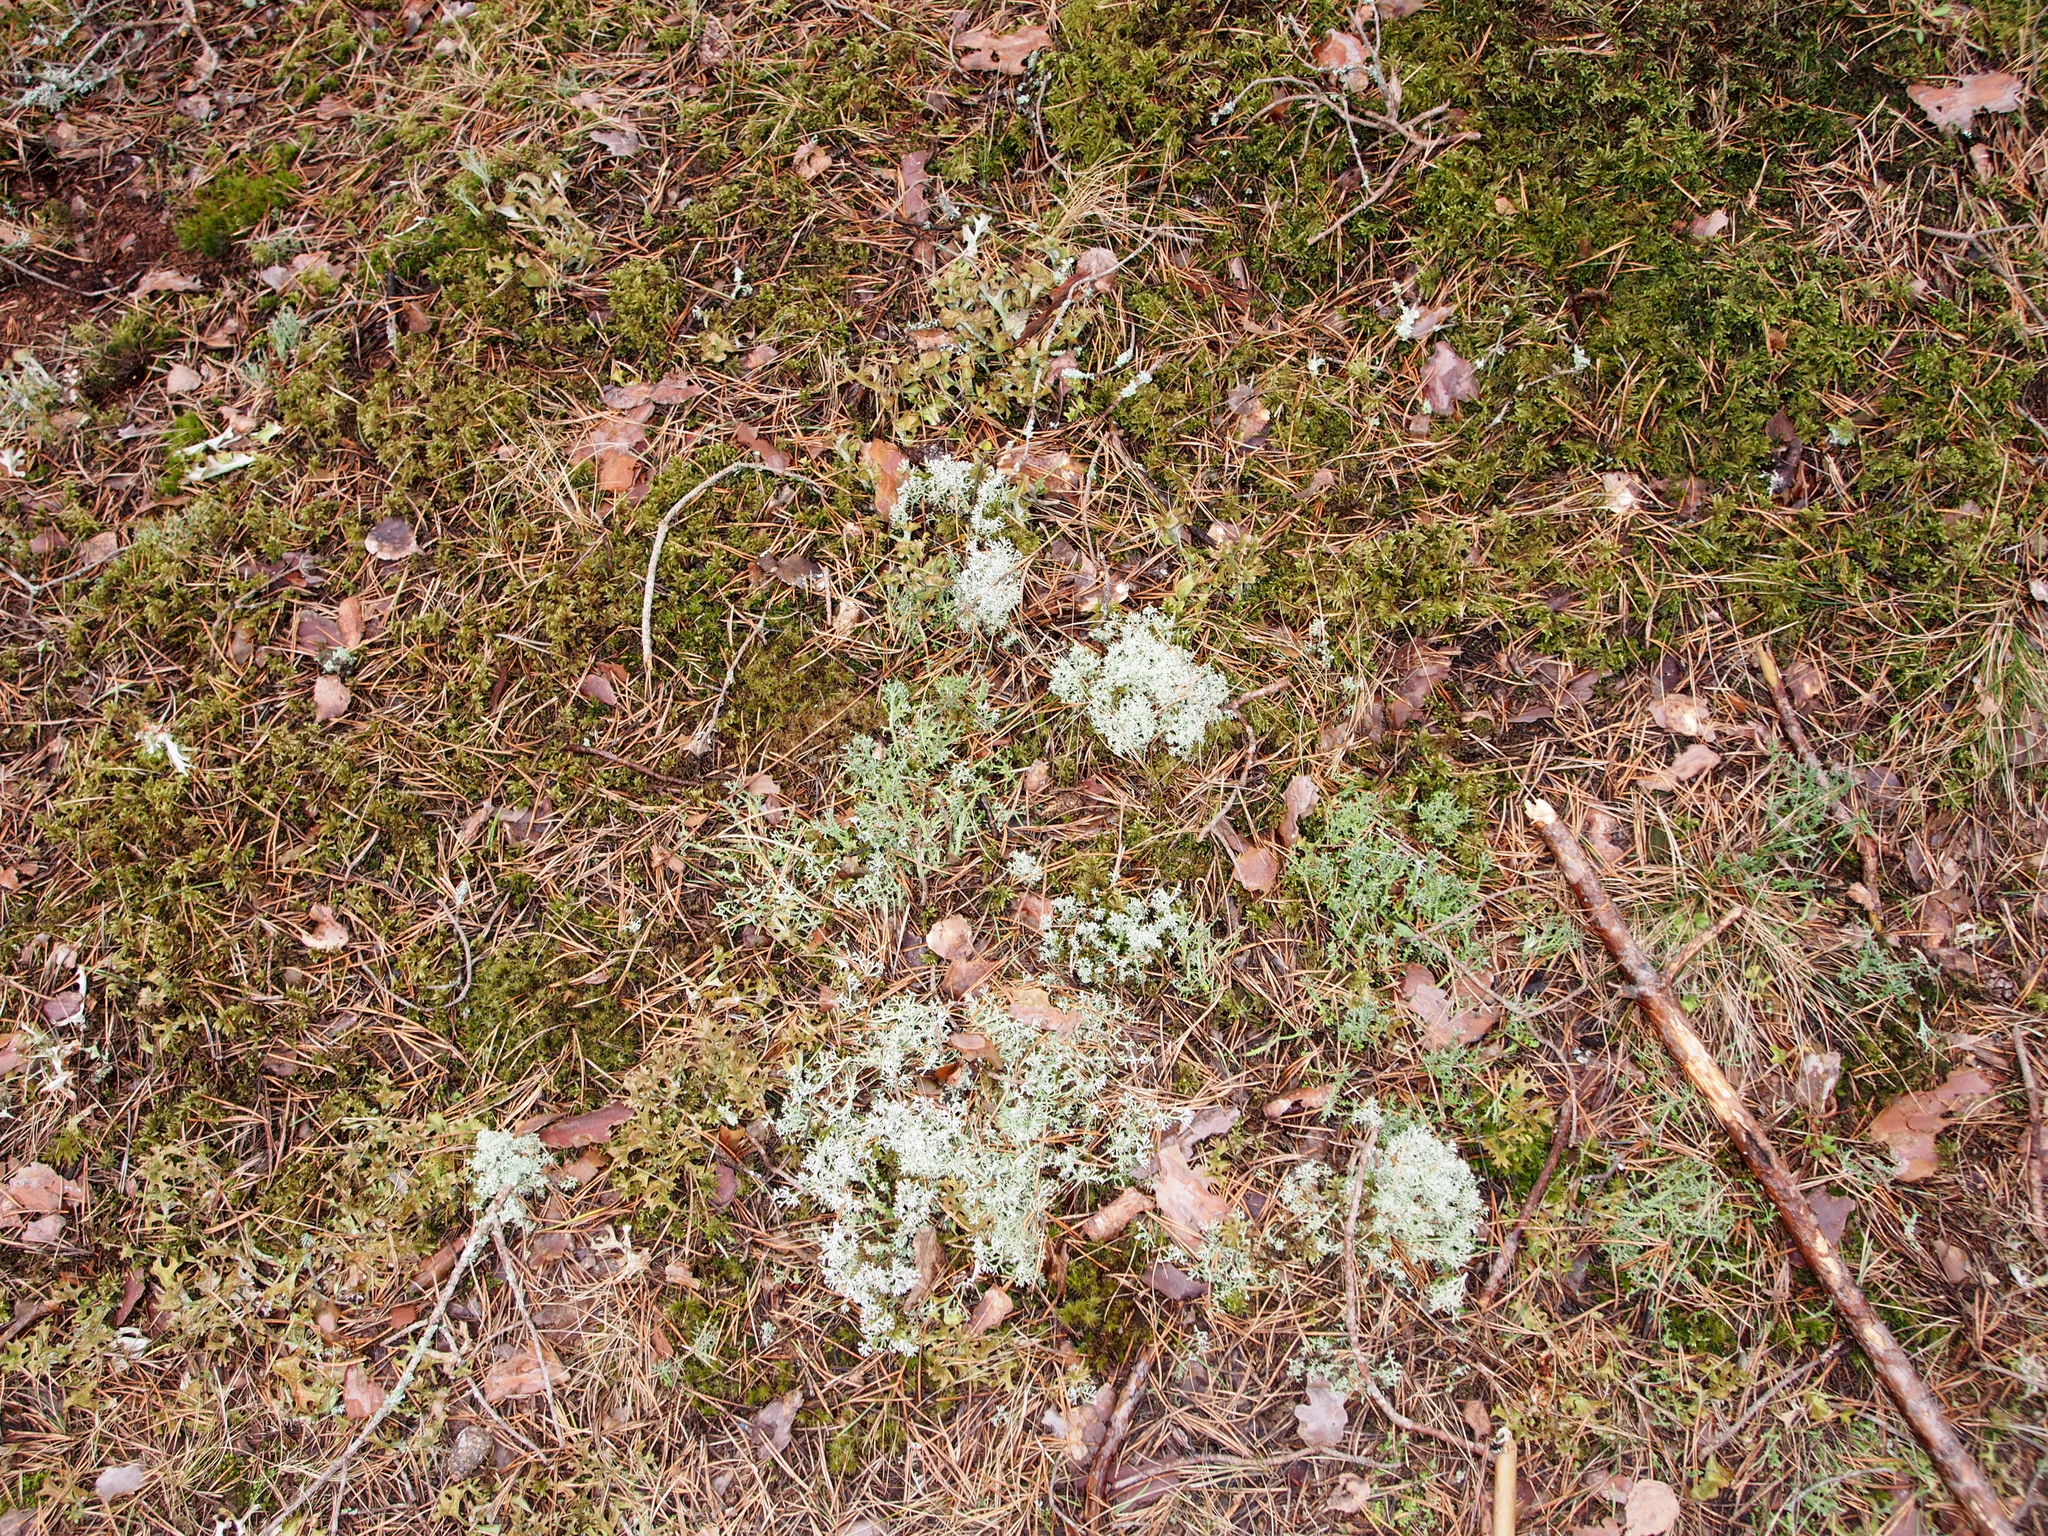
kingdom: Fungi
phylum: Ascomycota
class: Lecanoromycetes
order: Lecanorales
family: Parmeliaceae
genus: Cetraria
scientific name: Cetraria islandica
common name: Iceland lichen
